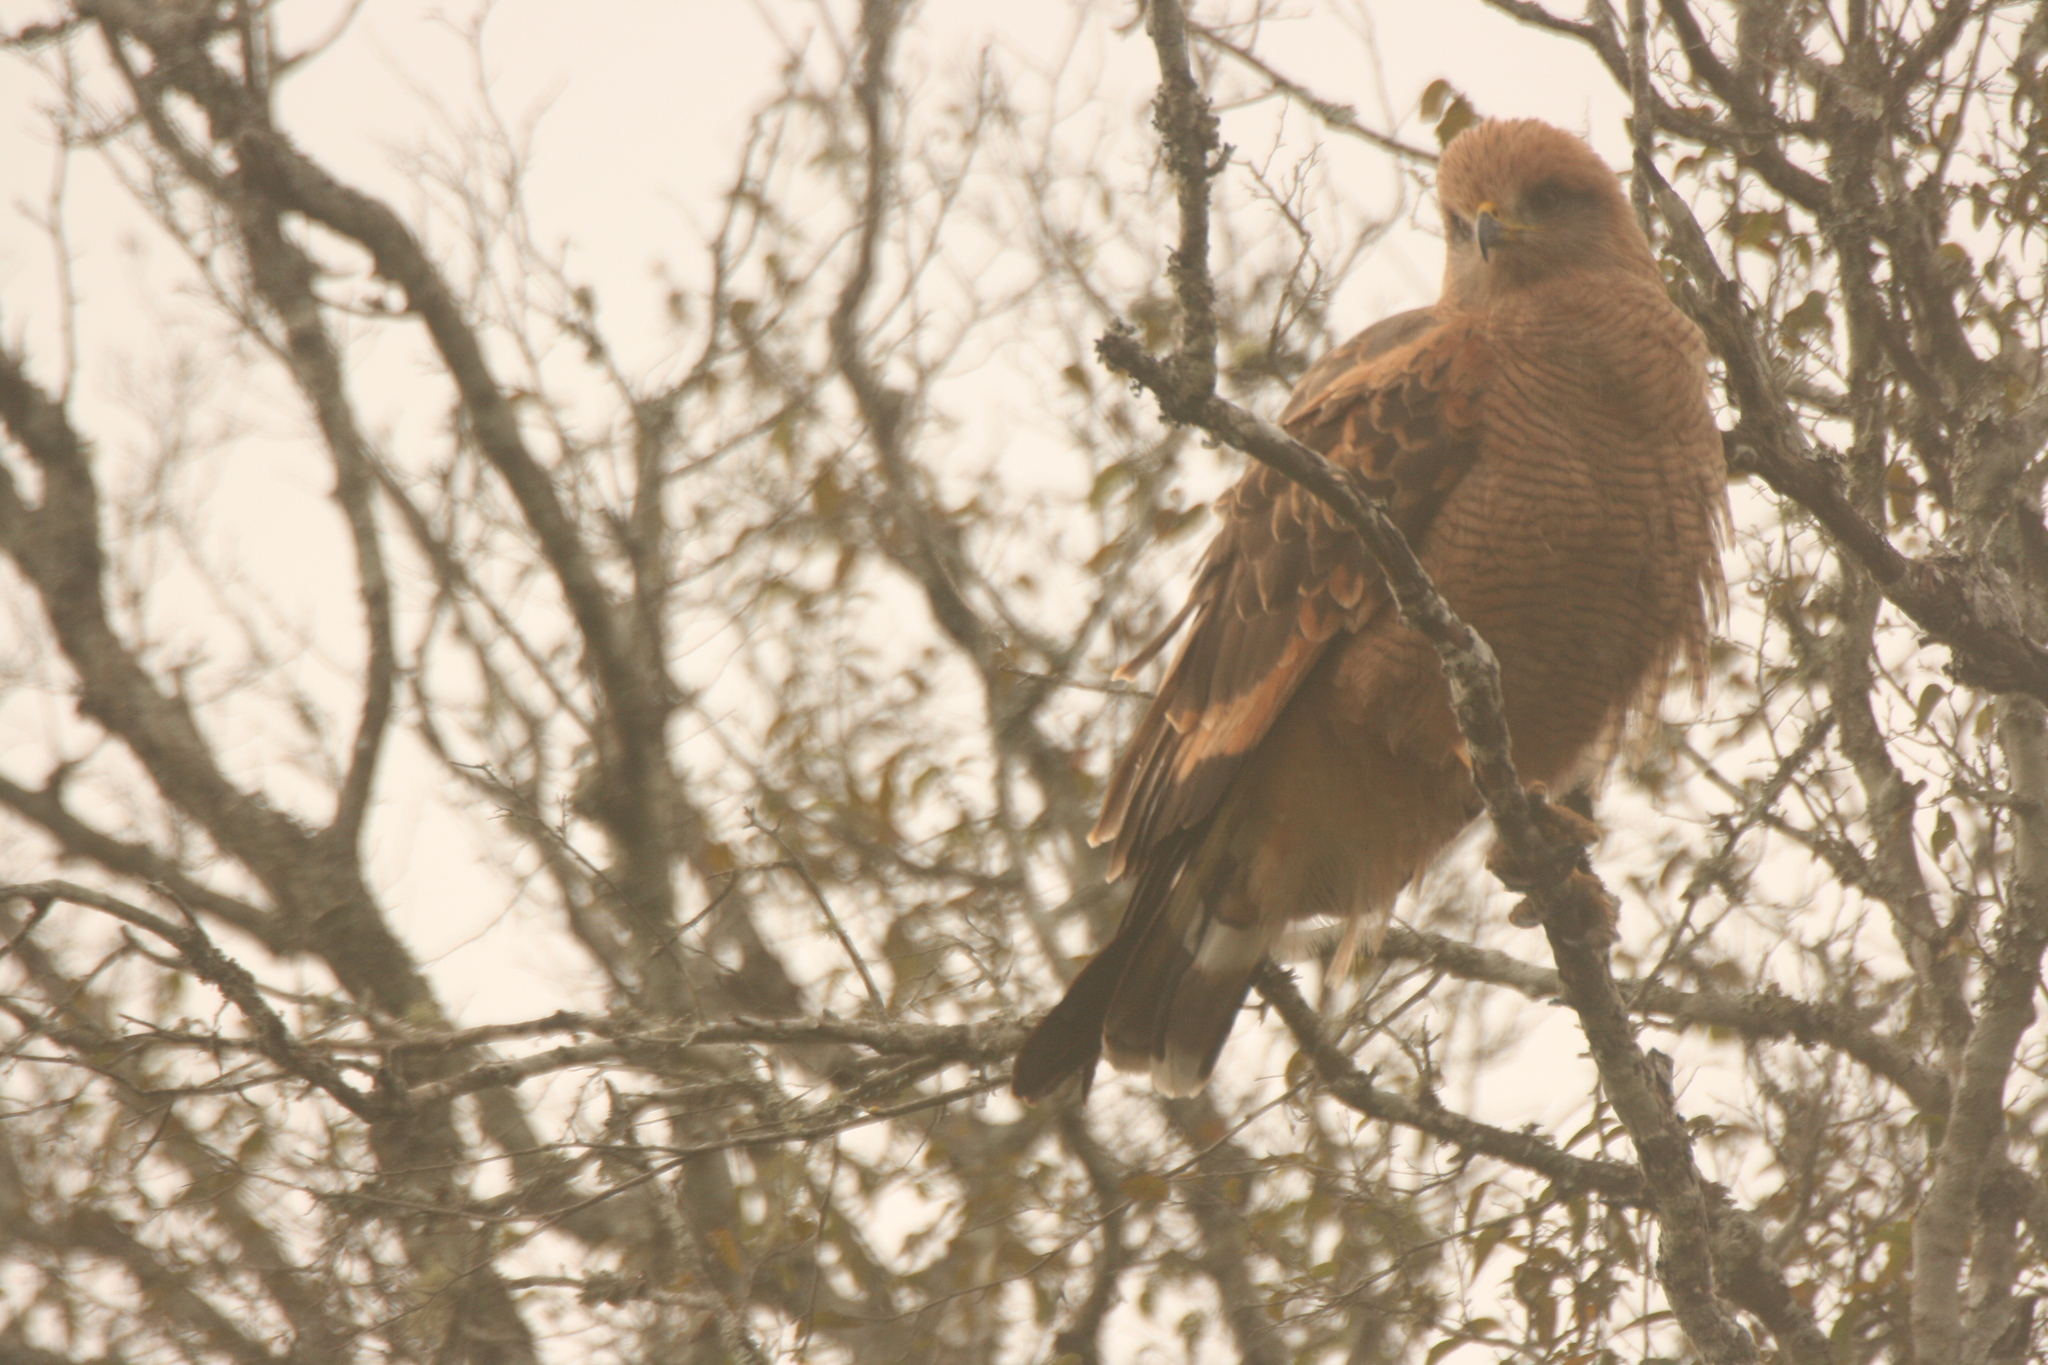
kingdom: Animalia
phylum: Chordata
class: Aves
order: Accipitriformes
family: Accipitridae
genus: Buteogallus
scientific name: Buteogallus meridionalis
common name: Savanna hawk
